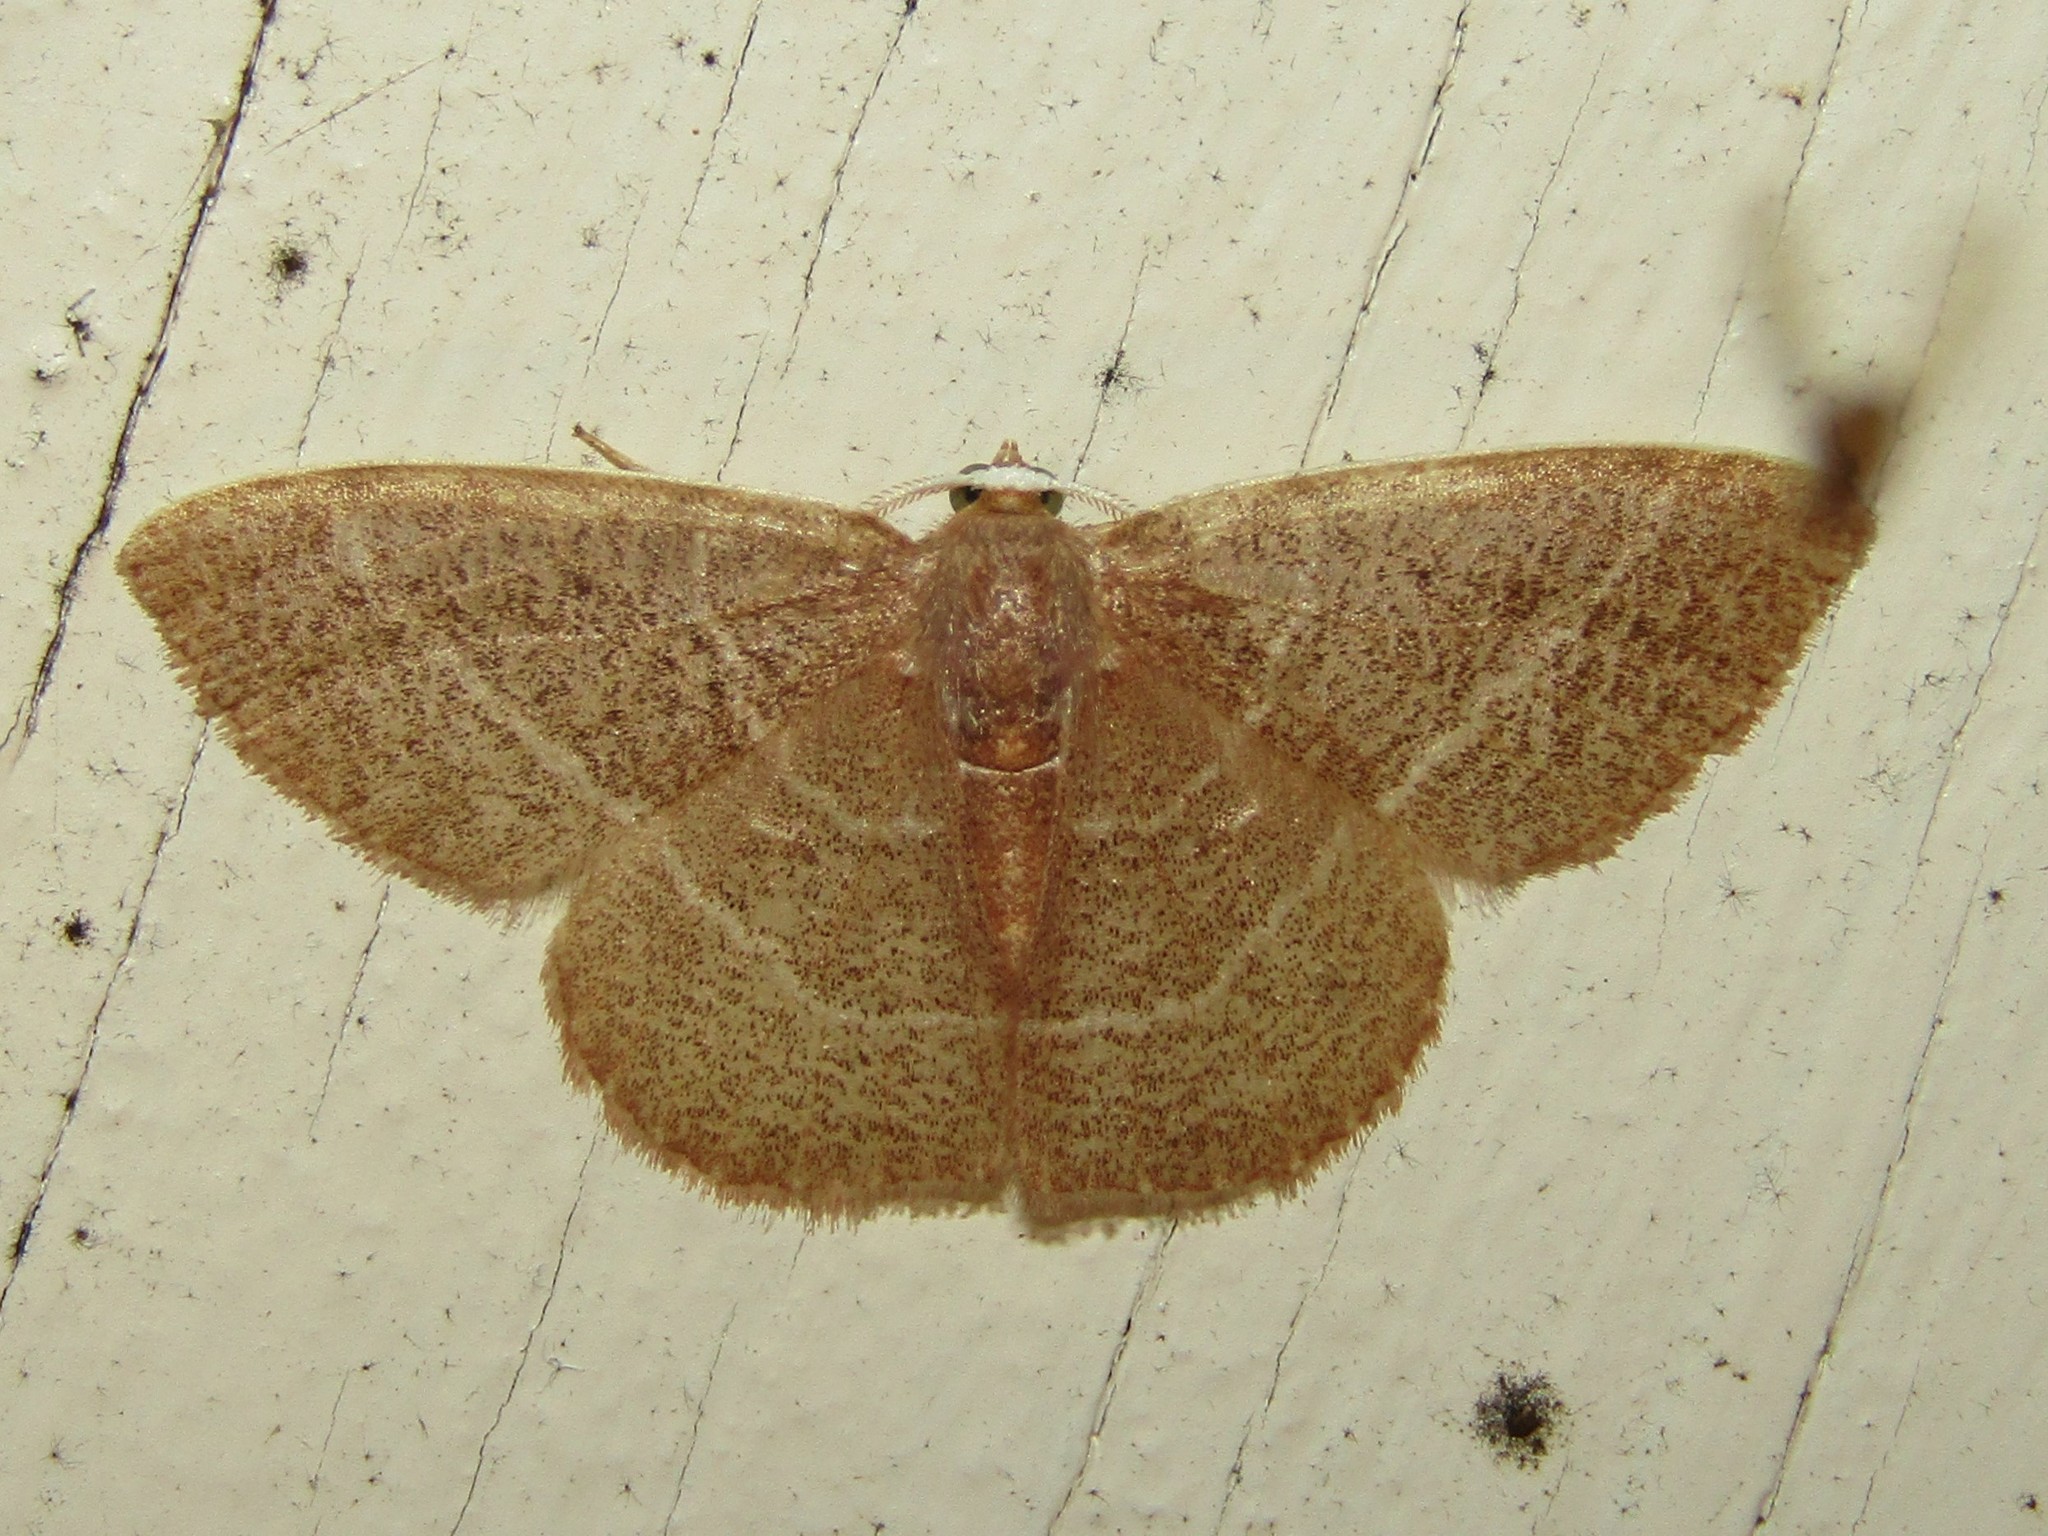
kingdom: Animalia
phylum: Arthropoda
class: Insecta
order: Lepidoptera
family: Geometridae
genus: Nemoria
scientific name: Nemoria bistriaria
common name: Red-fringed emerald
